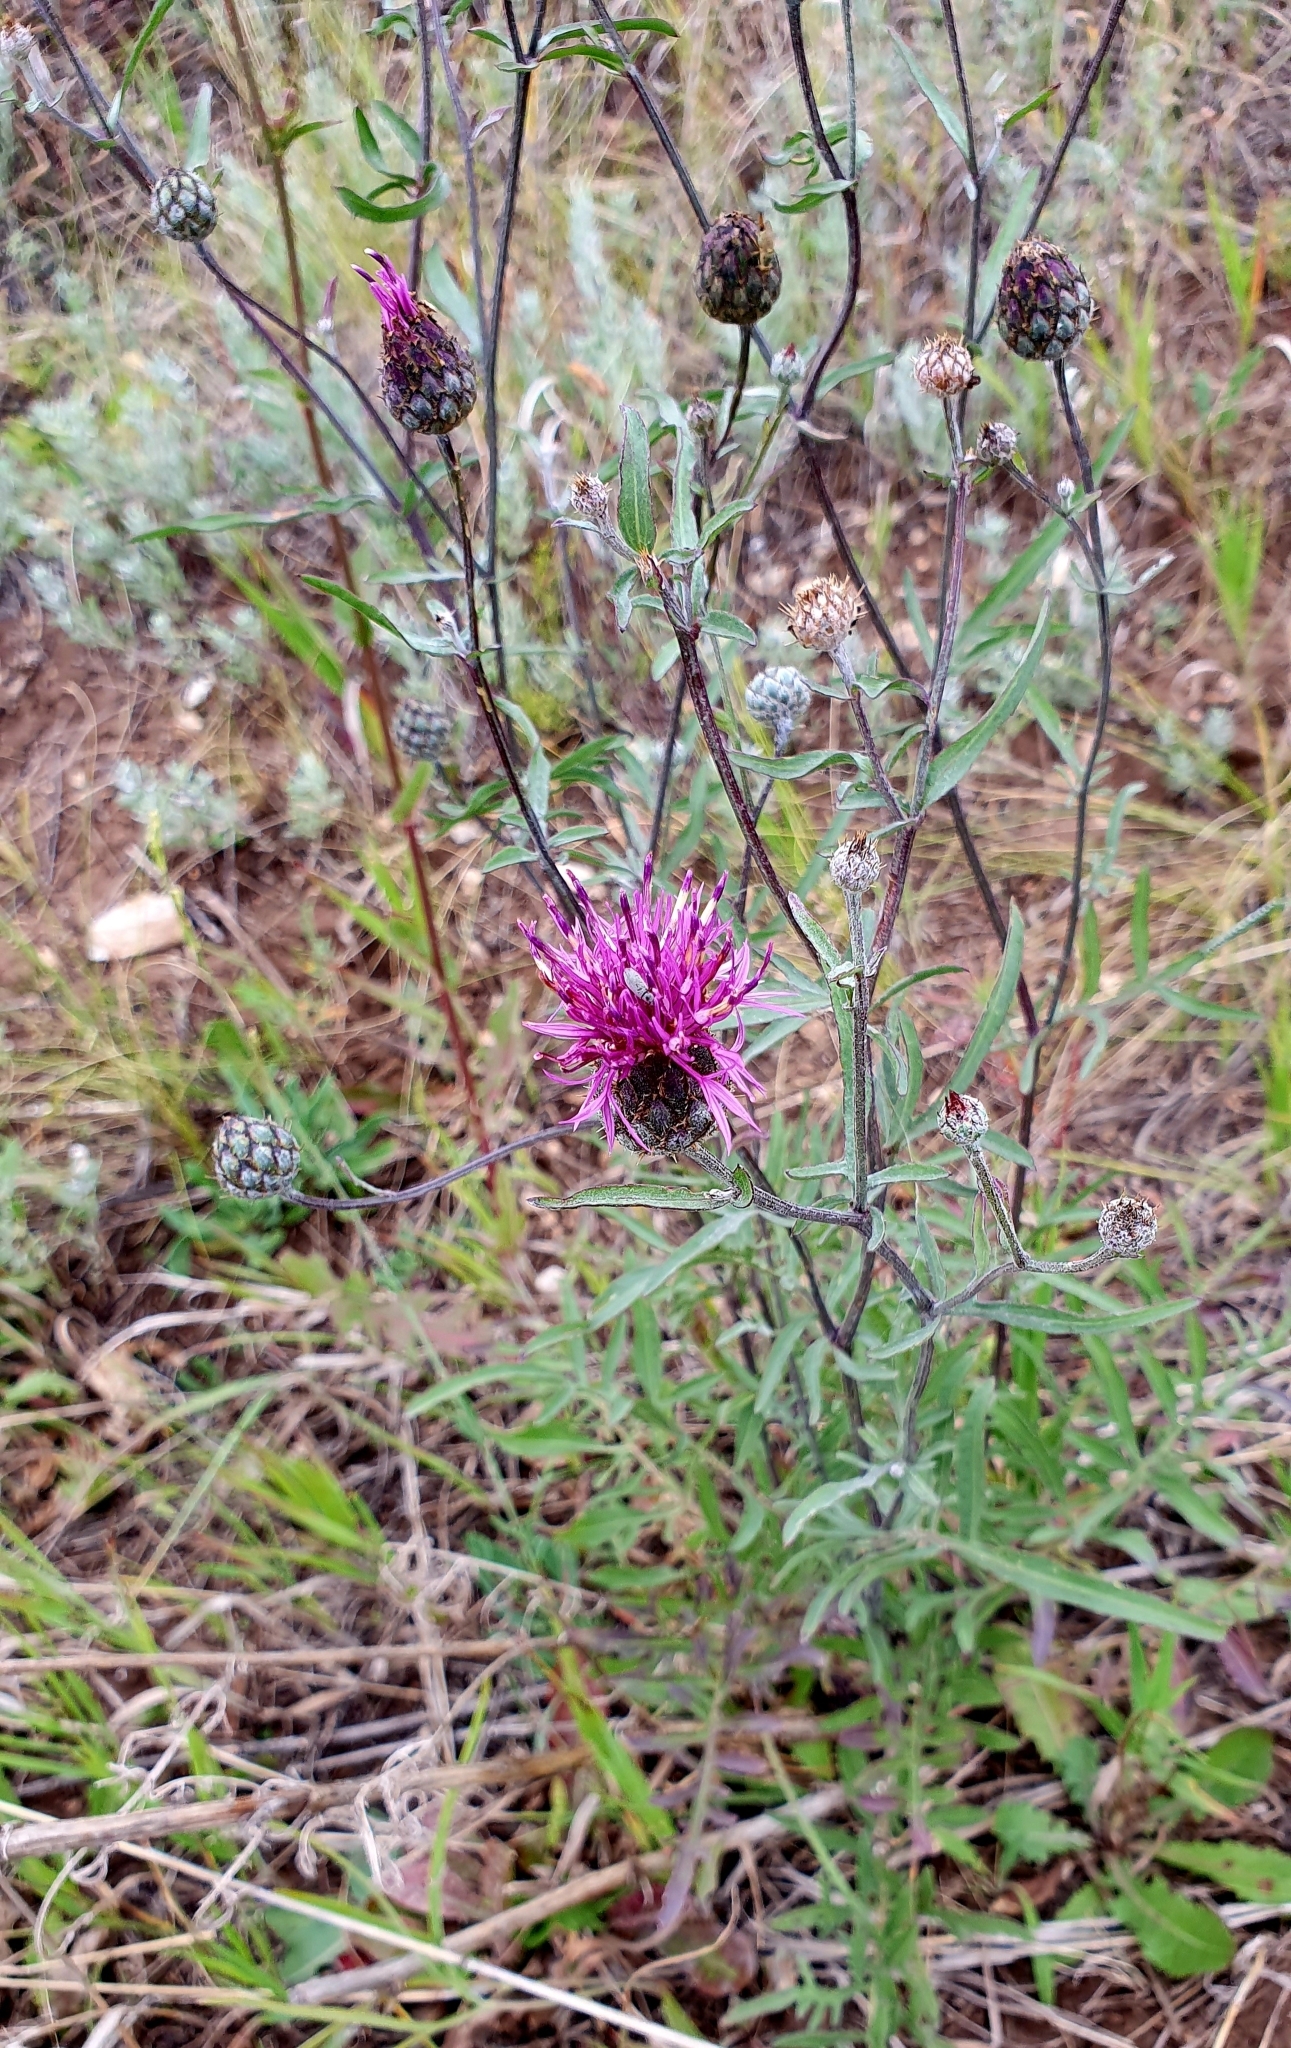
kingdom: Plantae
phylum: Tracheophyta
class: Magnoliopsida
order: Asterales
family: Asteraceae
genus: Centaurea
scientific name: Centaurea scabiosa
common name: Greater knapweed
